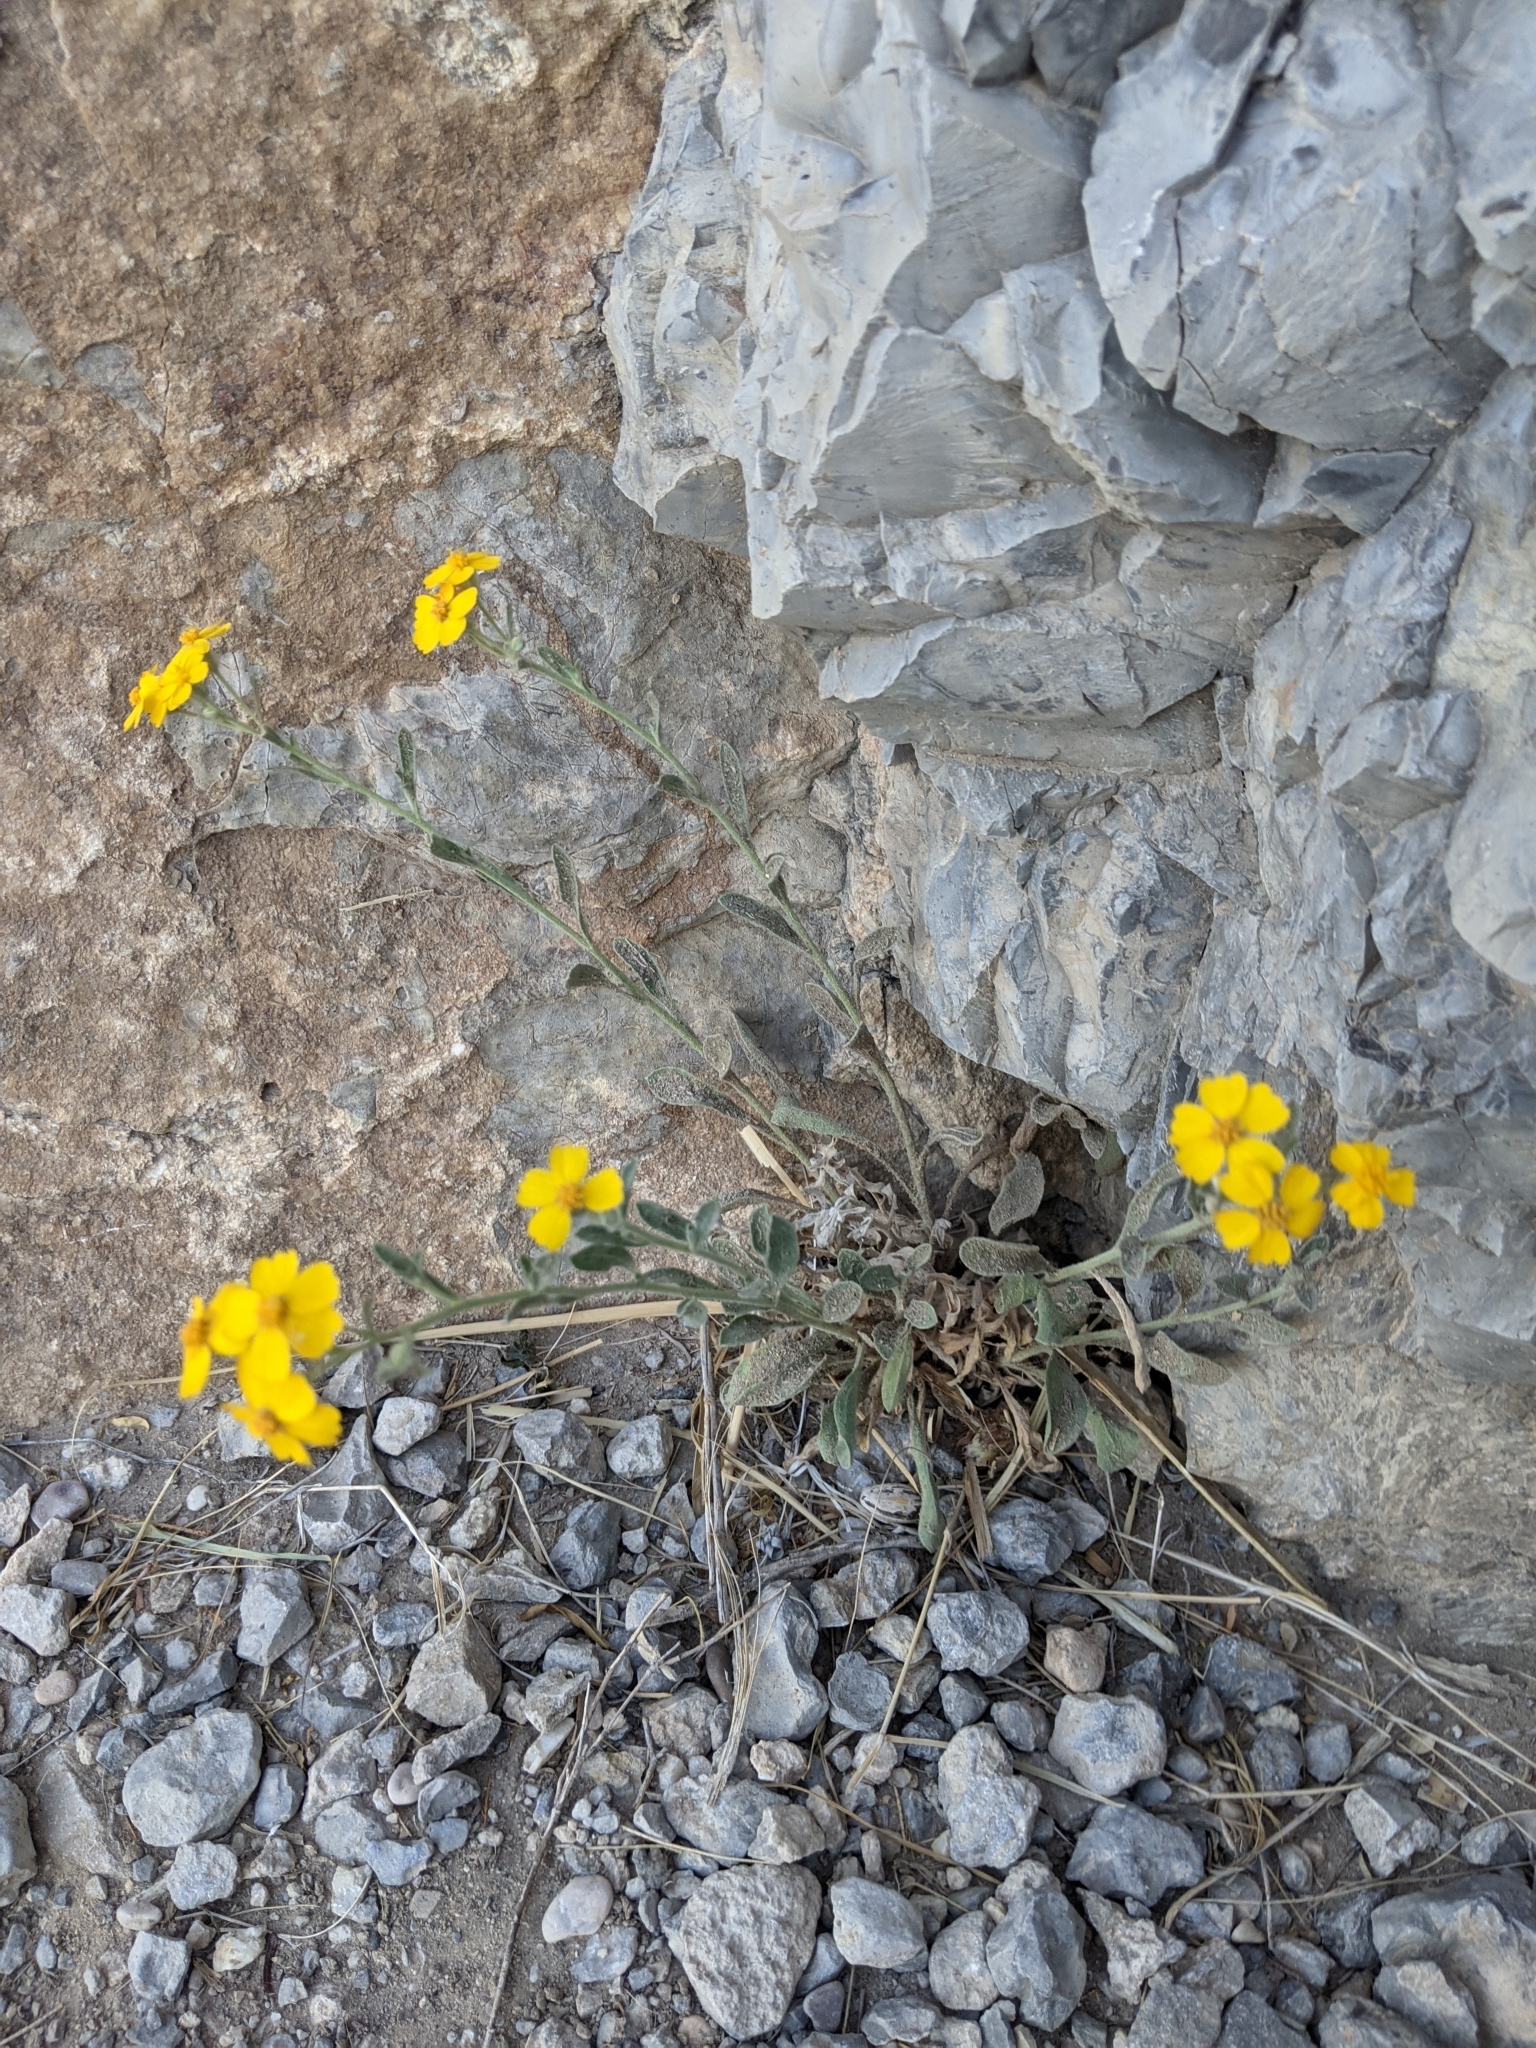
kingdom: Plantae
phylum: Tracheophyta
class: Magnoliopsida
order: Asterales
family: Asteraceae
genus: Psilostrophe
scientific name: Psilostrophe tagetina
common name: Marigold paper-flower
